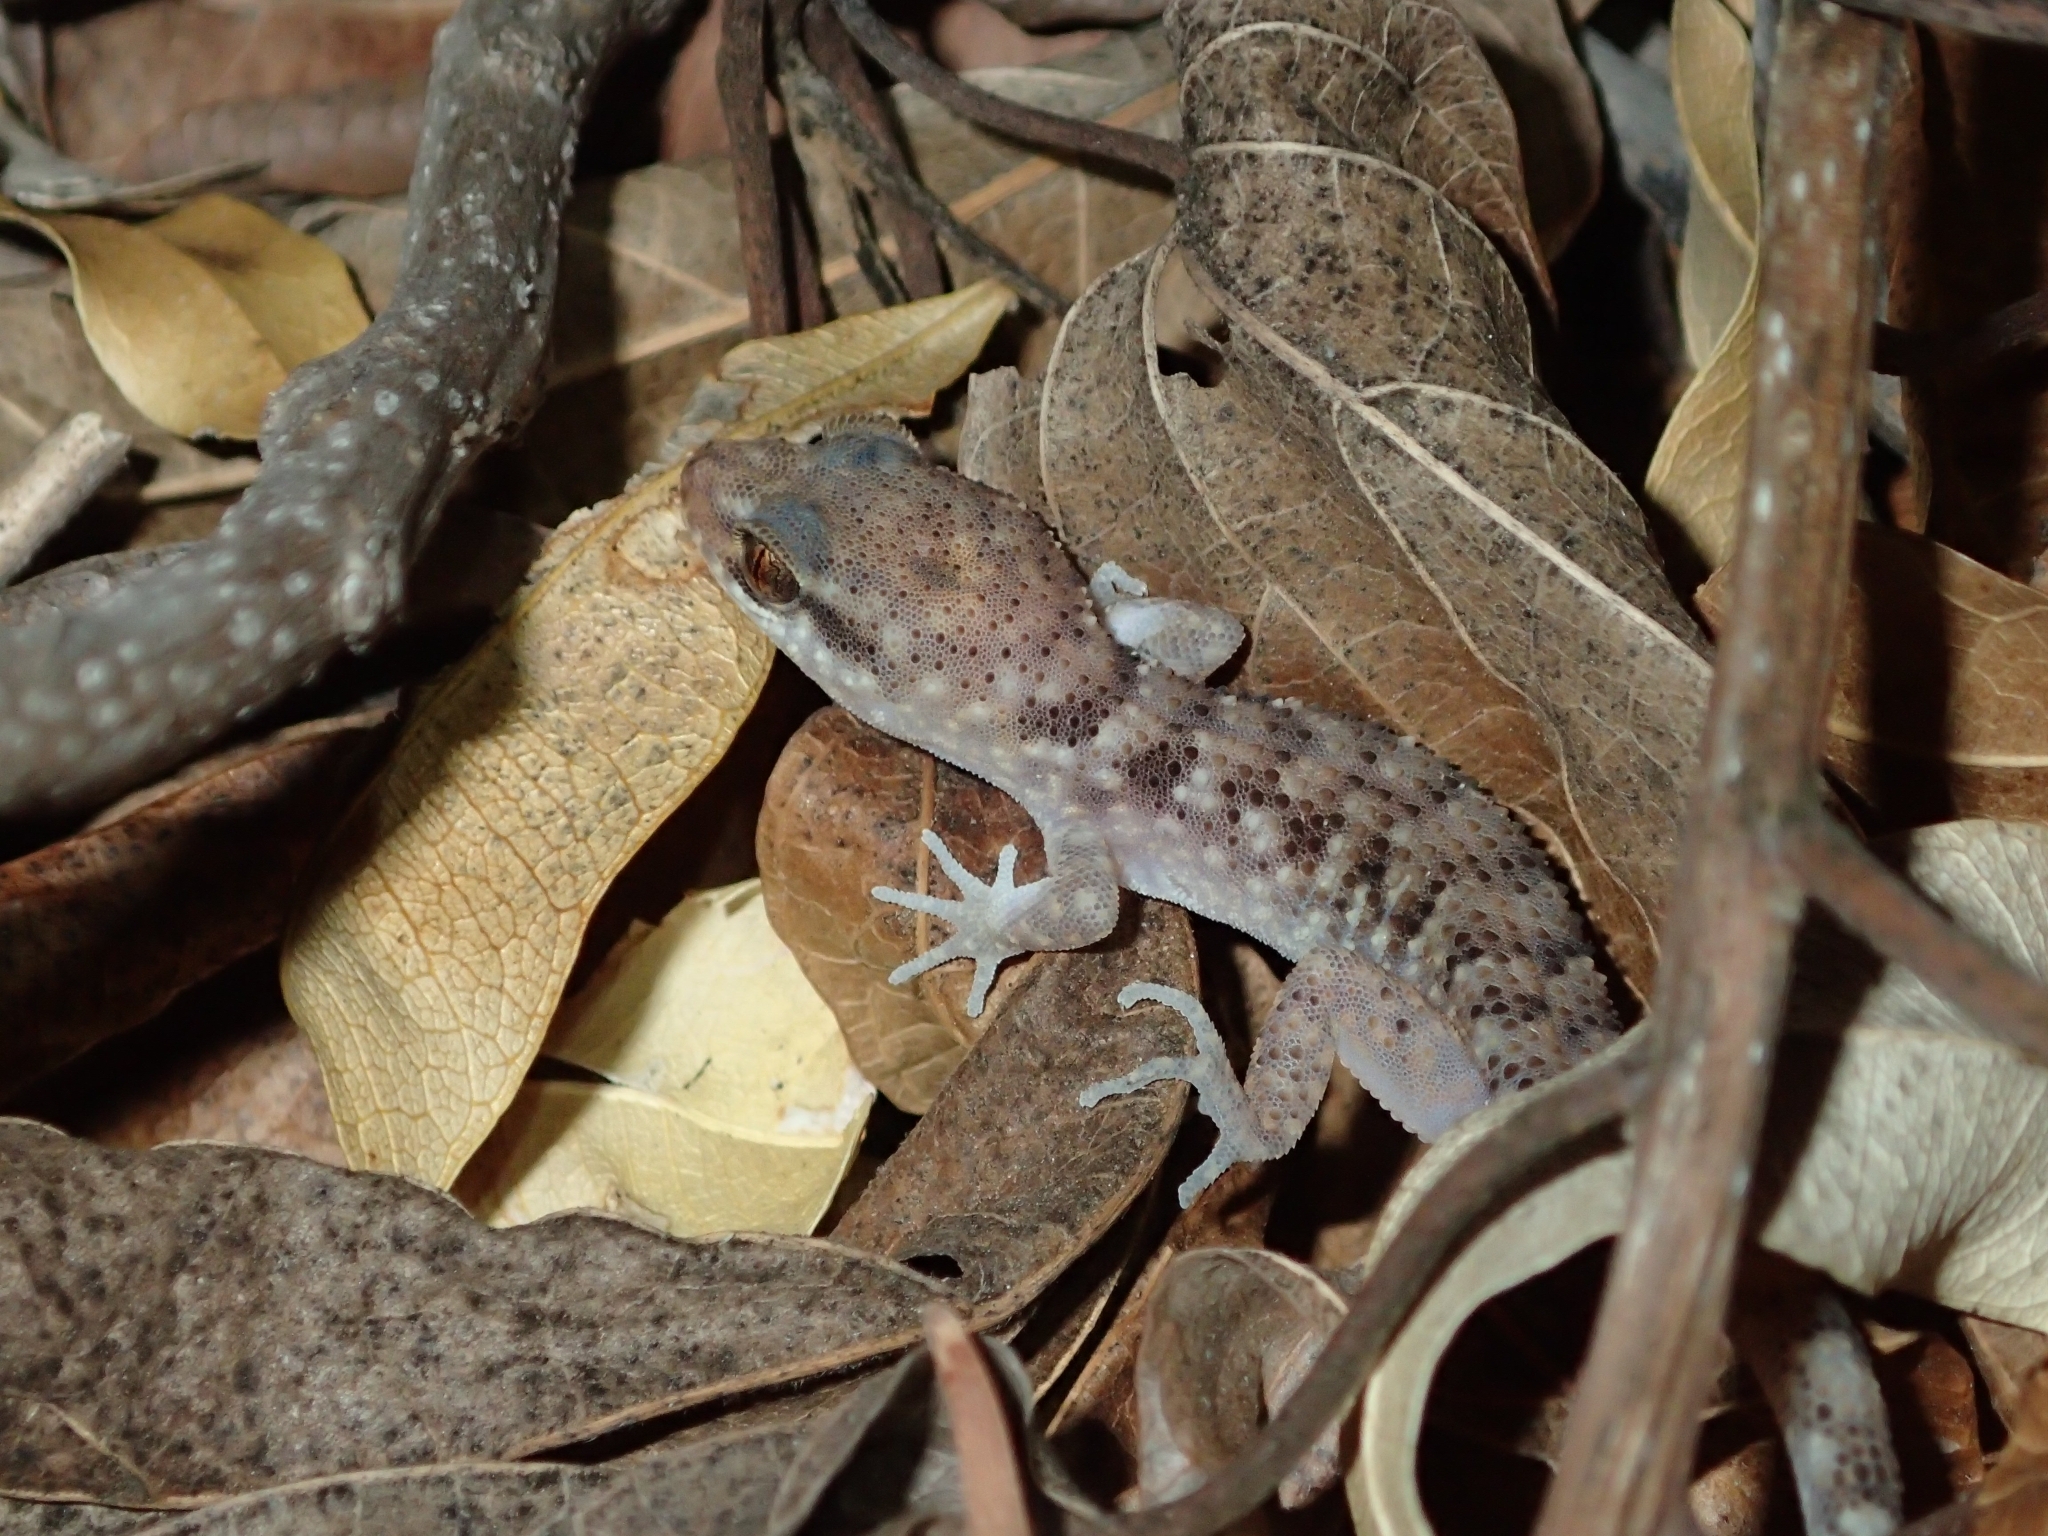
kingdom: Animalia
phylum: Chordata
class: Squamata
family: Gekkonidae
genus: Heteronotia
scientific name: Heteronotia binoei
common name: Bynoe's gecko
